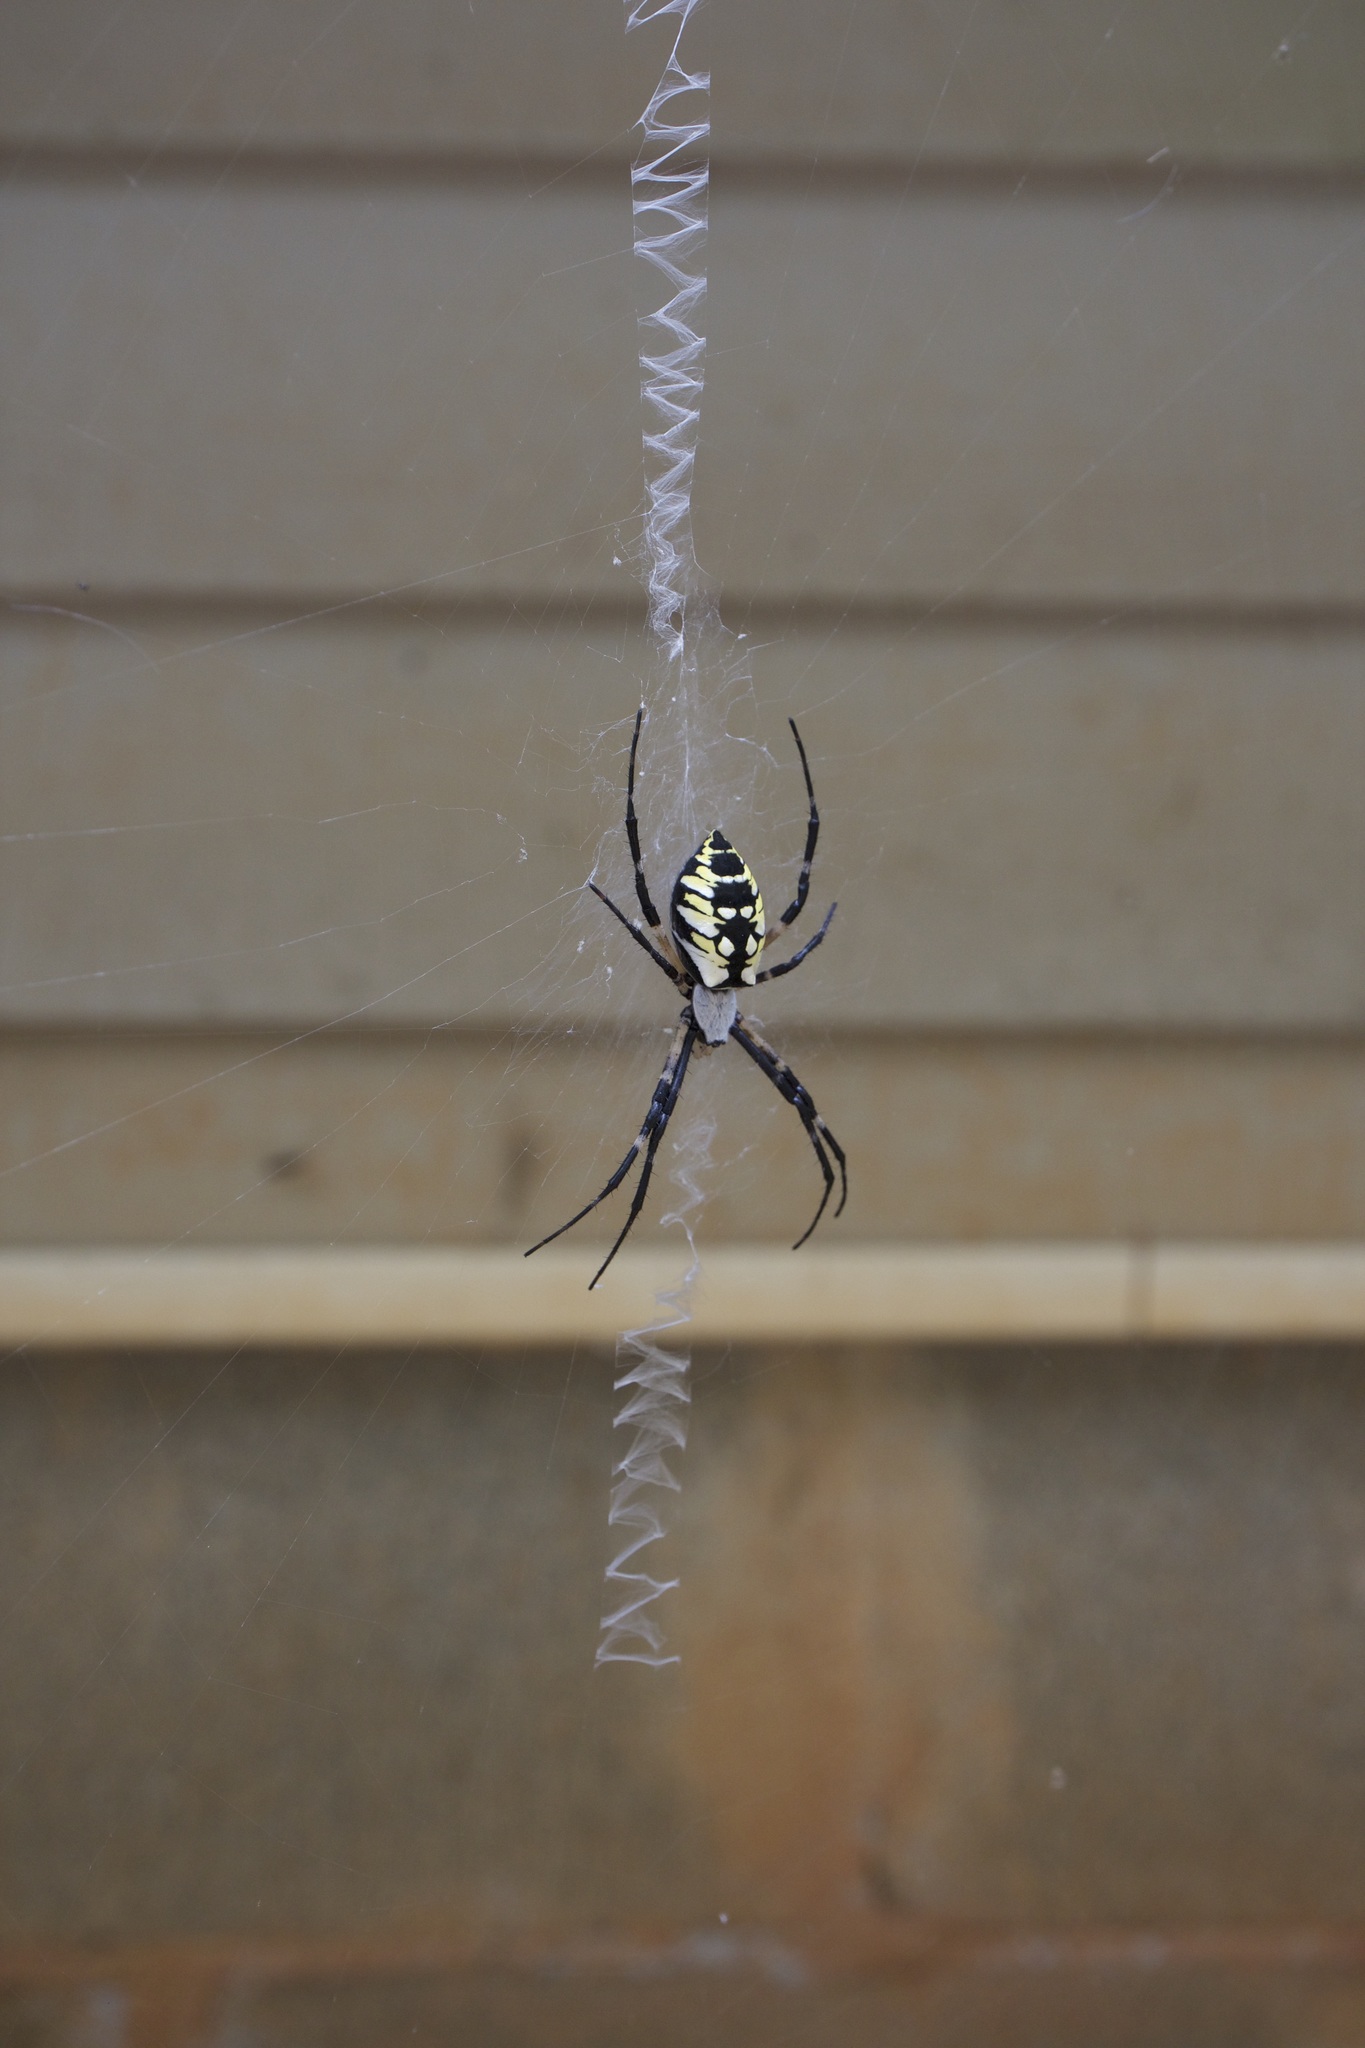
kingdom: Animalia
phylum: Arthropoda
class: Arachnida
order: Araneae
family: Araneidae
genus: Argiope
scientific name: Argiope aurantia
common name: Orb weavers
